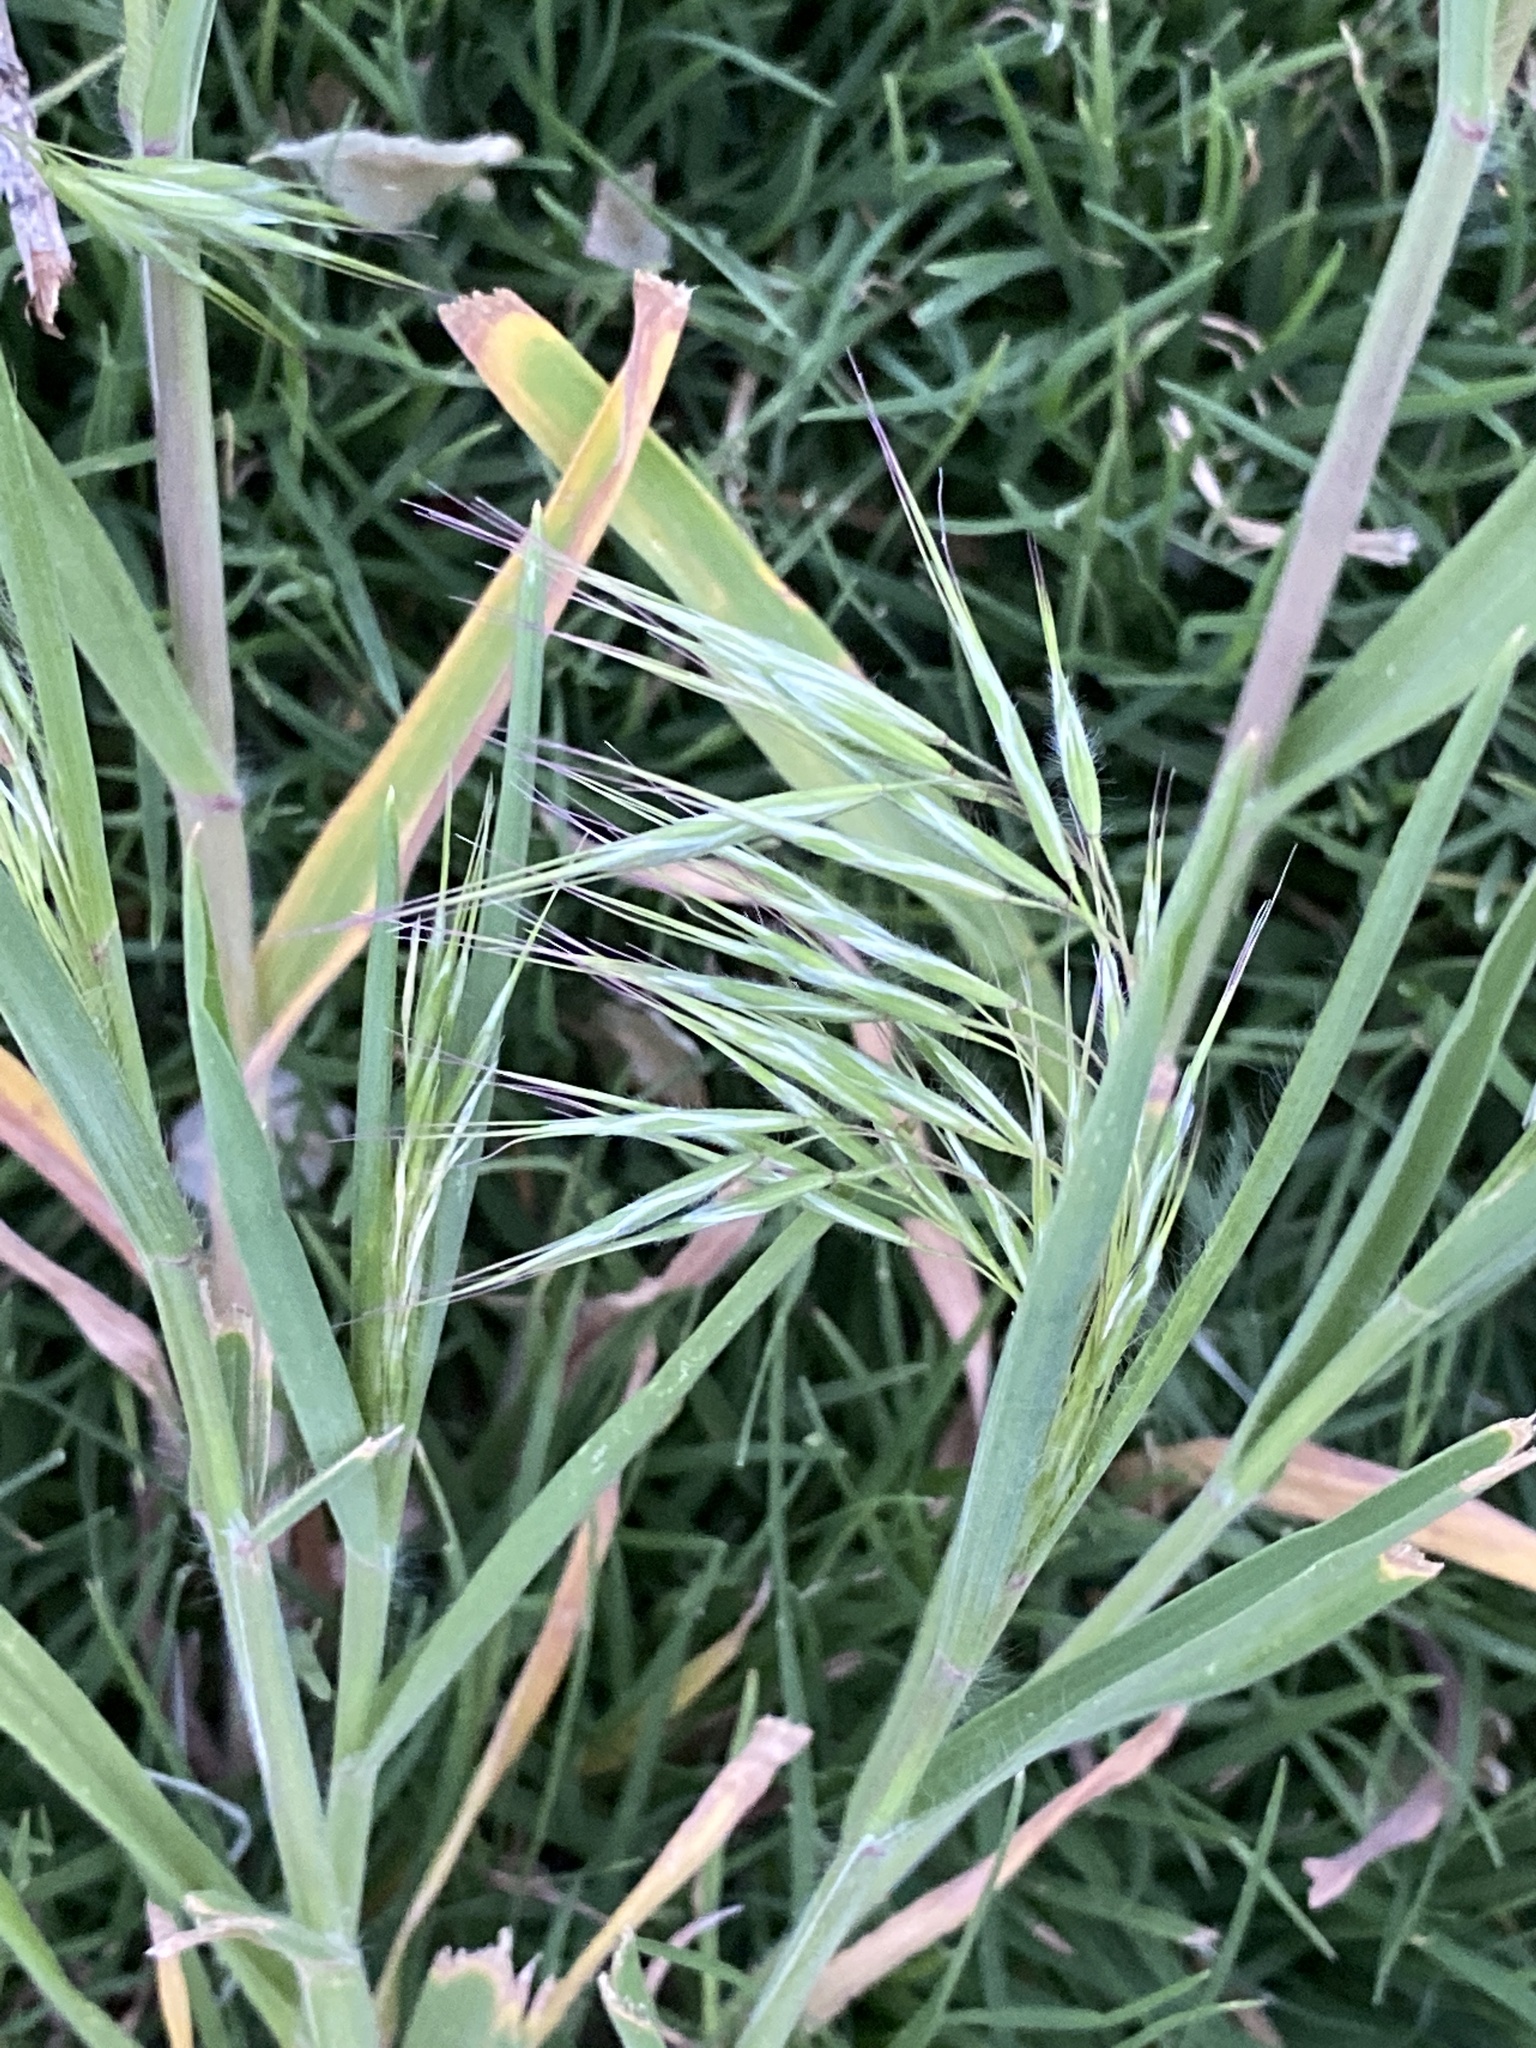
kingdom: Plantae
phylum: Tracheophyta
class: Liliopsida
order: Poales
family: Poaceae
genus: Bromus
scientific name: Bromus tectorum
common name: Cheatgrass
